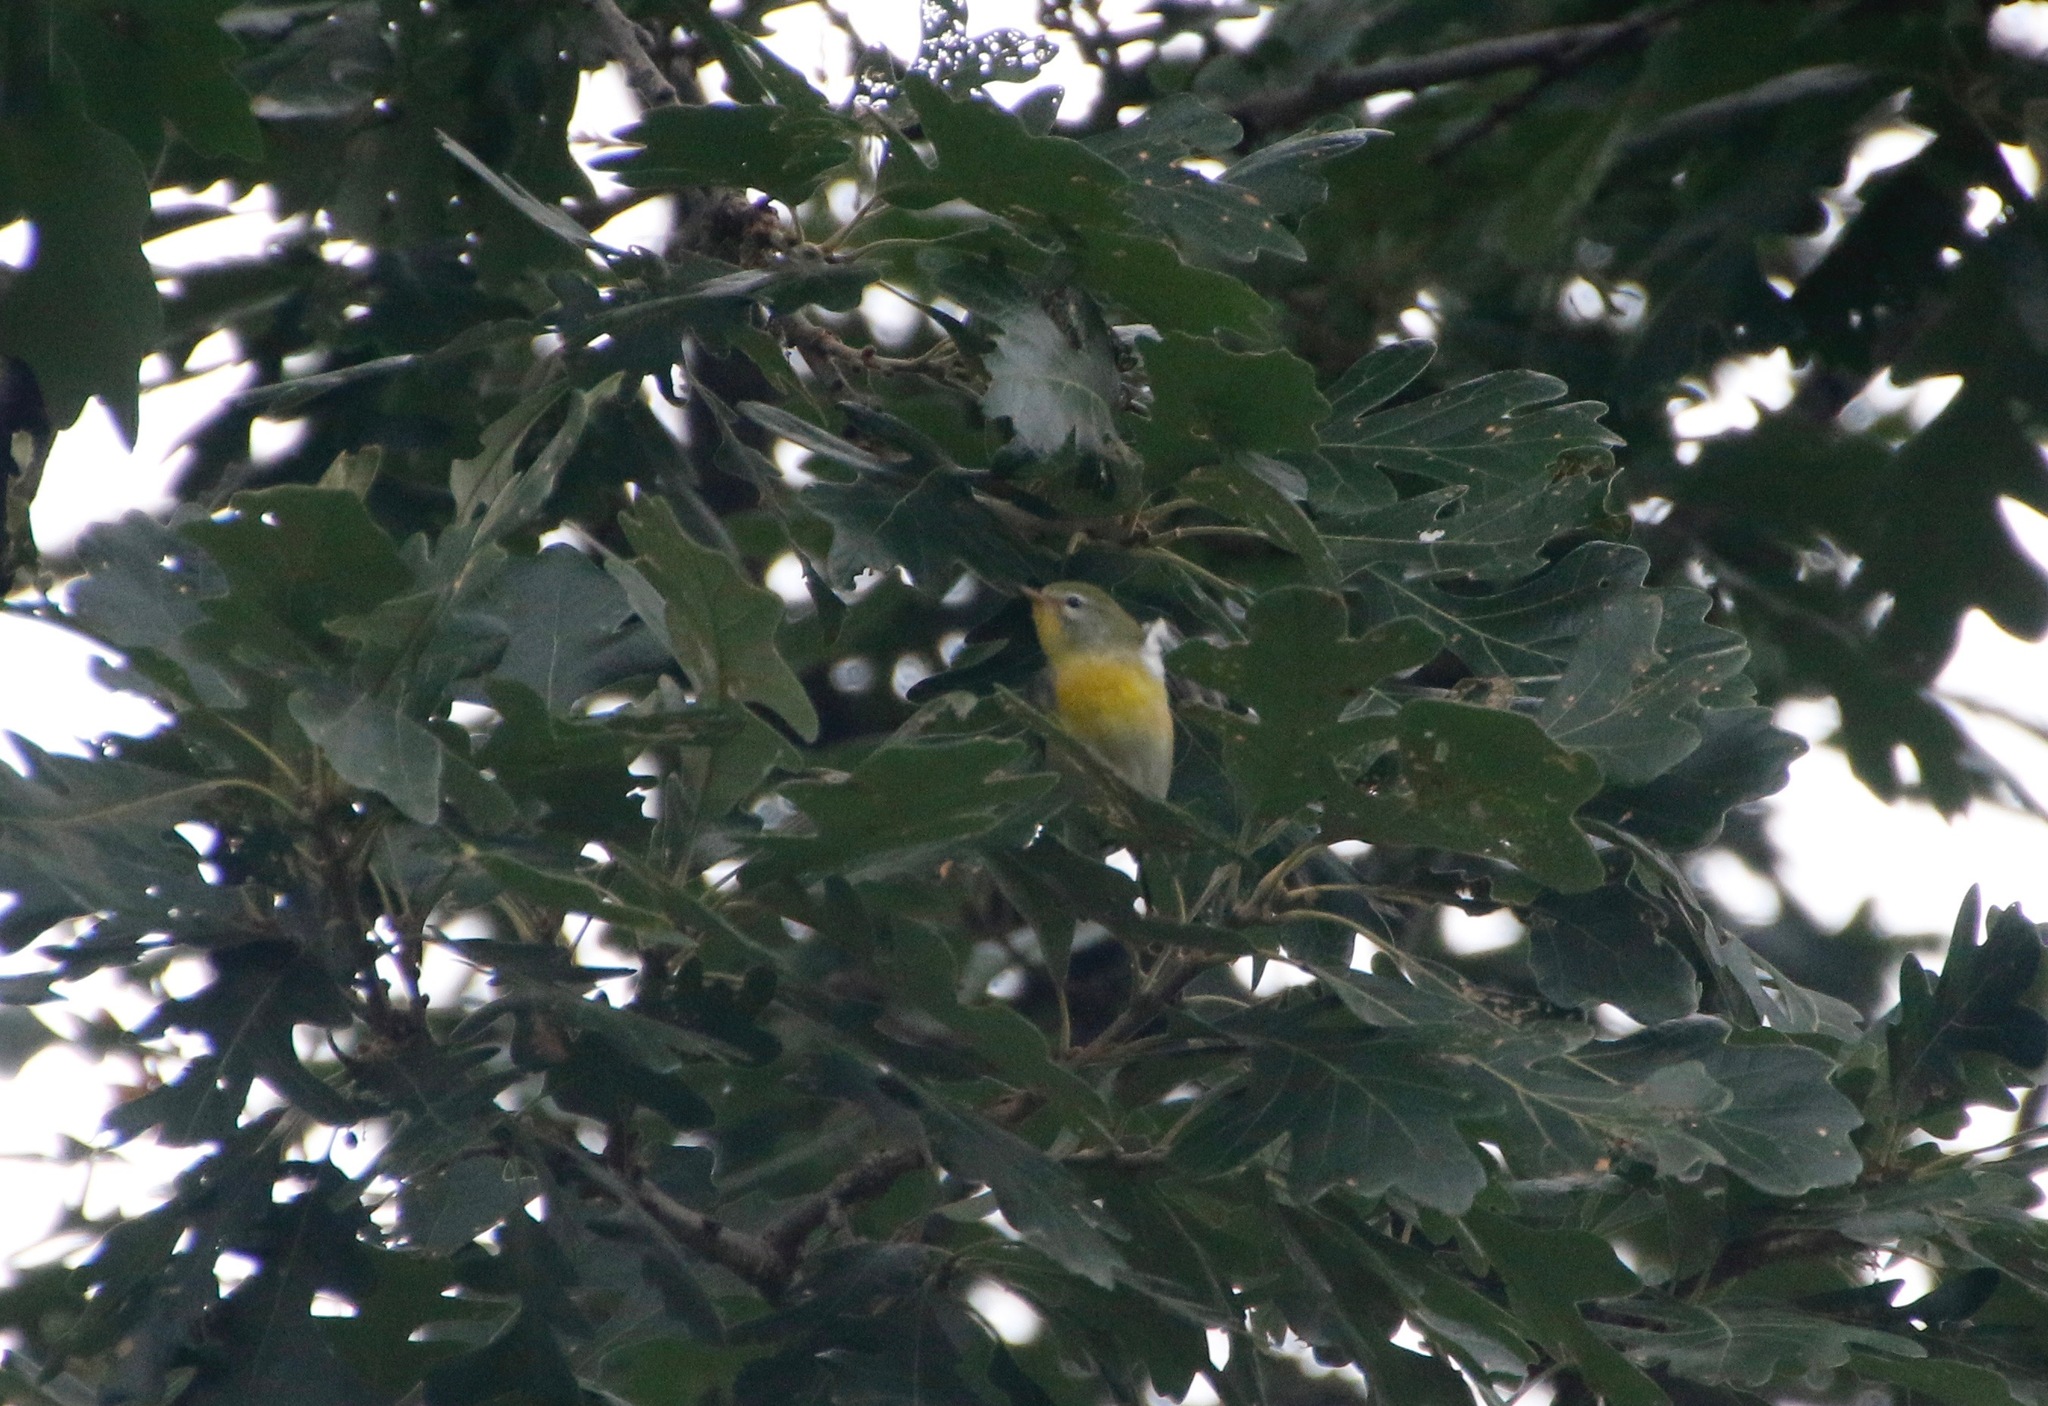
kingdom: Animalia
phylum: Chordata
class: Aves
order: Passeriformes
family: Parulidae
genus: Setophaga
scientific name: Setophaga americana
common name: Northern parula
